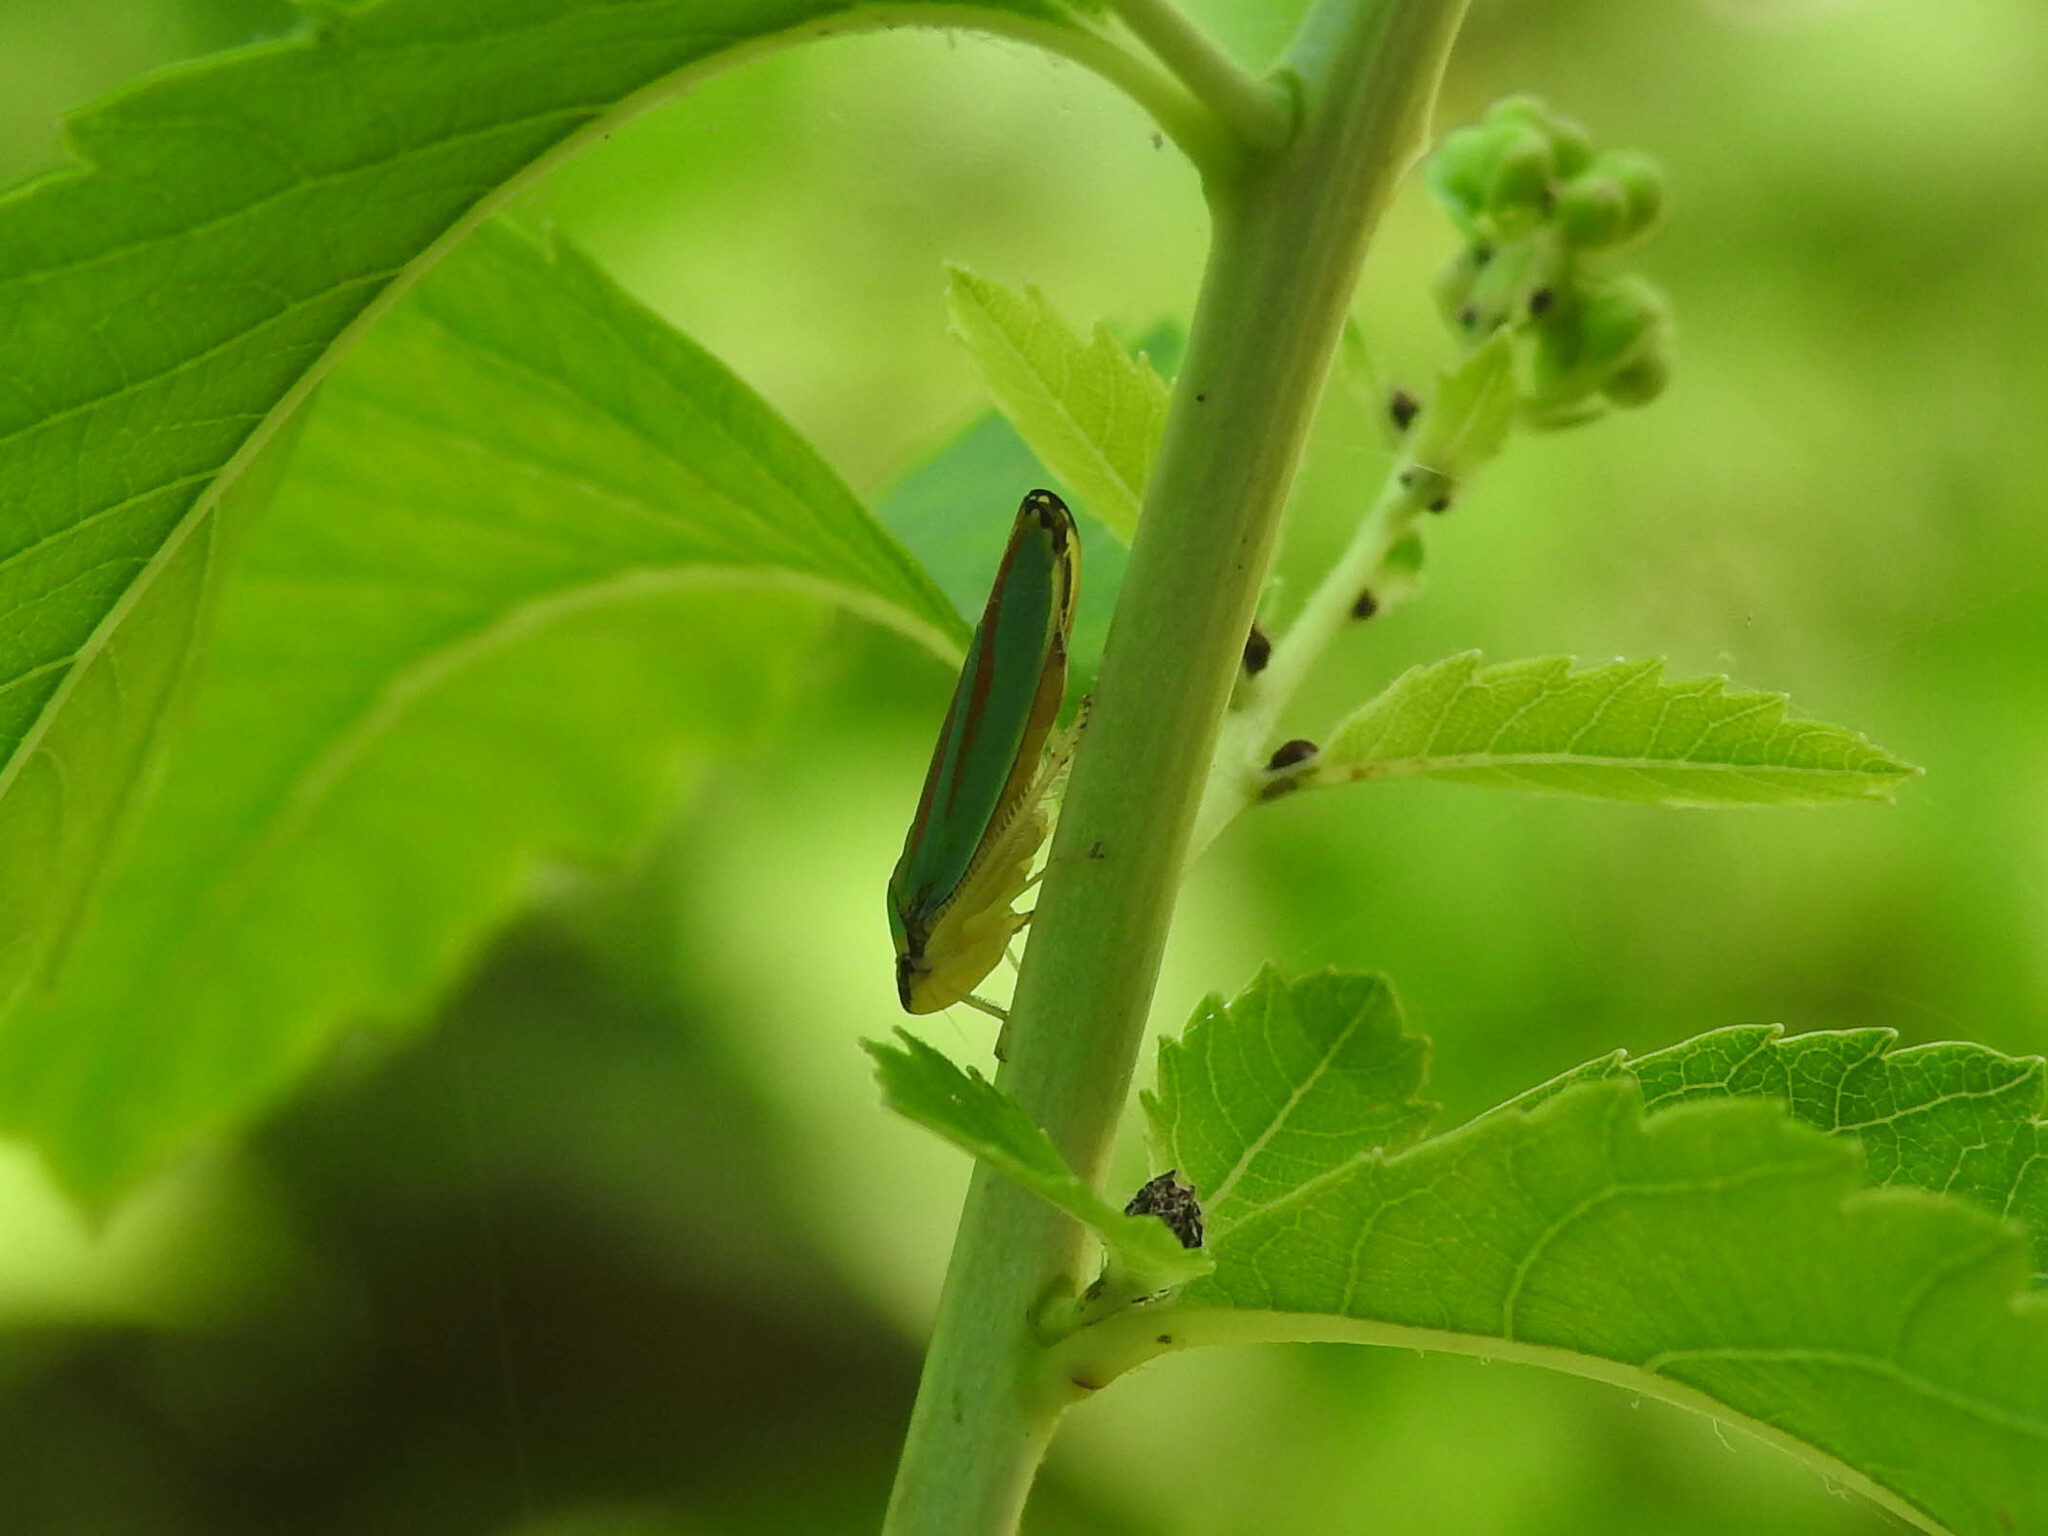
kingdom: Animalia
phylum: Arthropoda
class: Insecta
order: Hemiptera
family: Cicadellidae
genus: Graphocephala
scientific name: Graphocephala fennahi
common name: Rhododendron leafhopper
